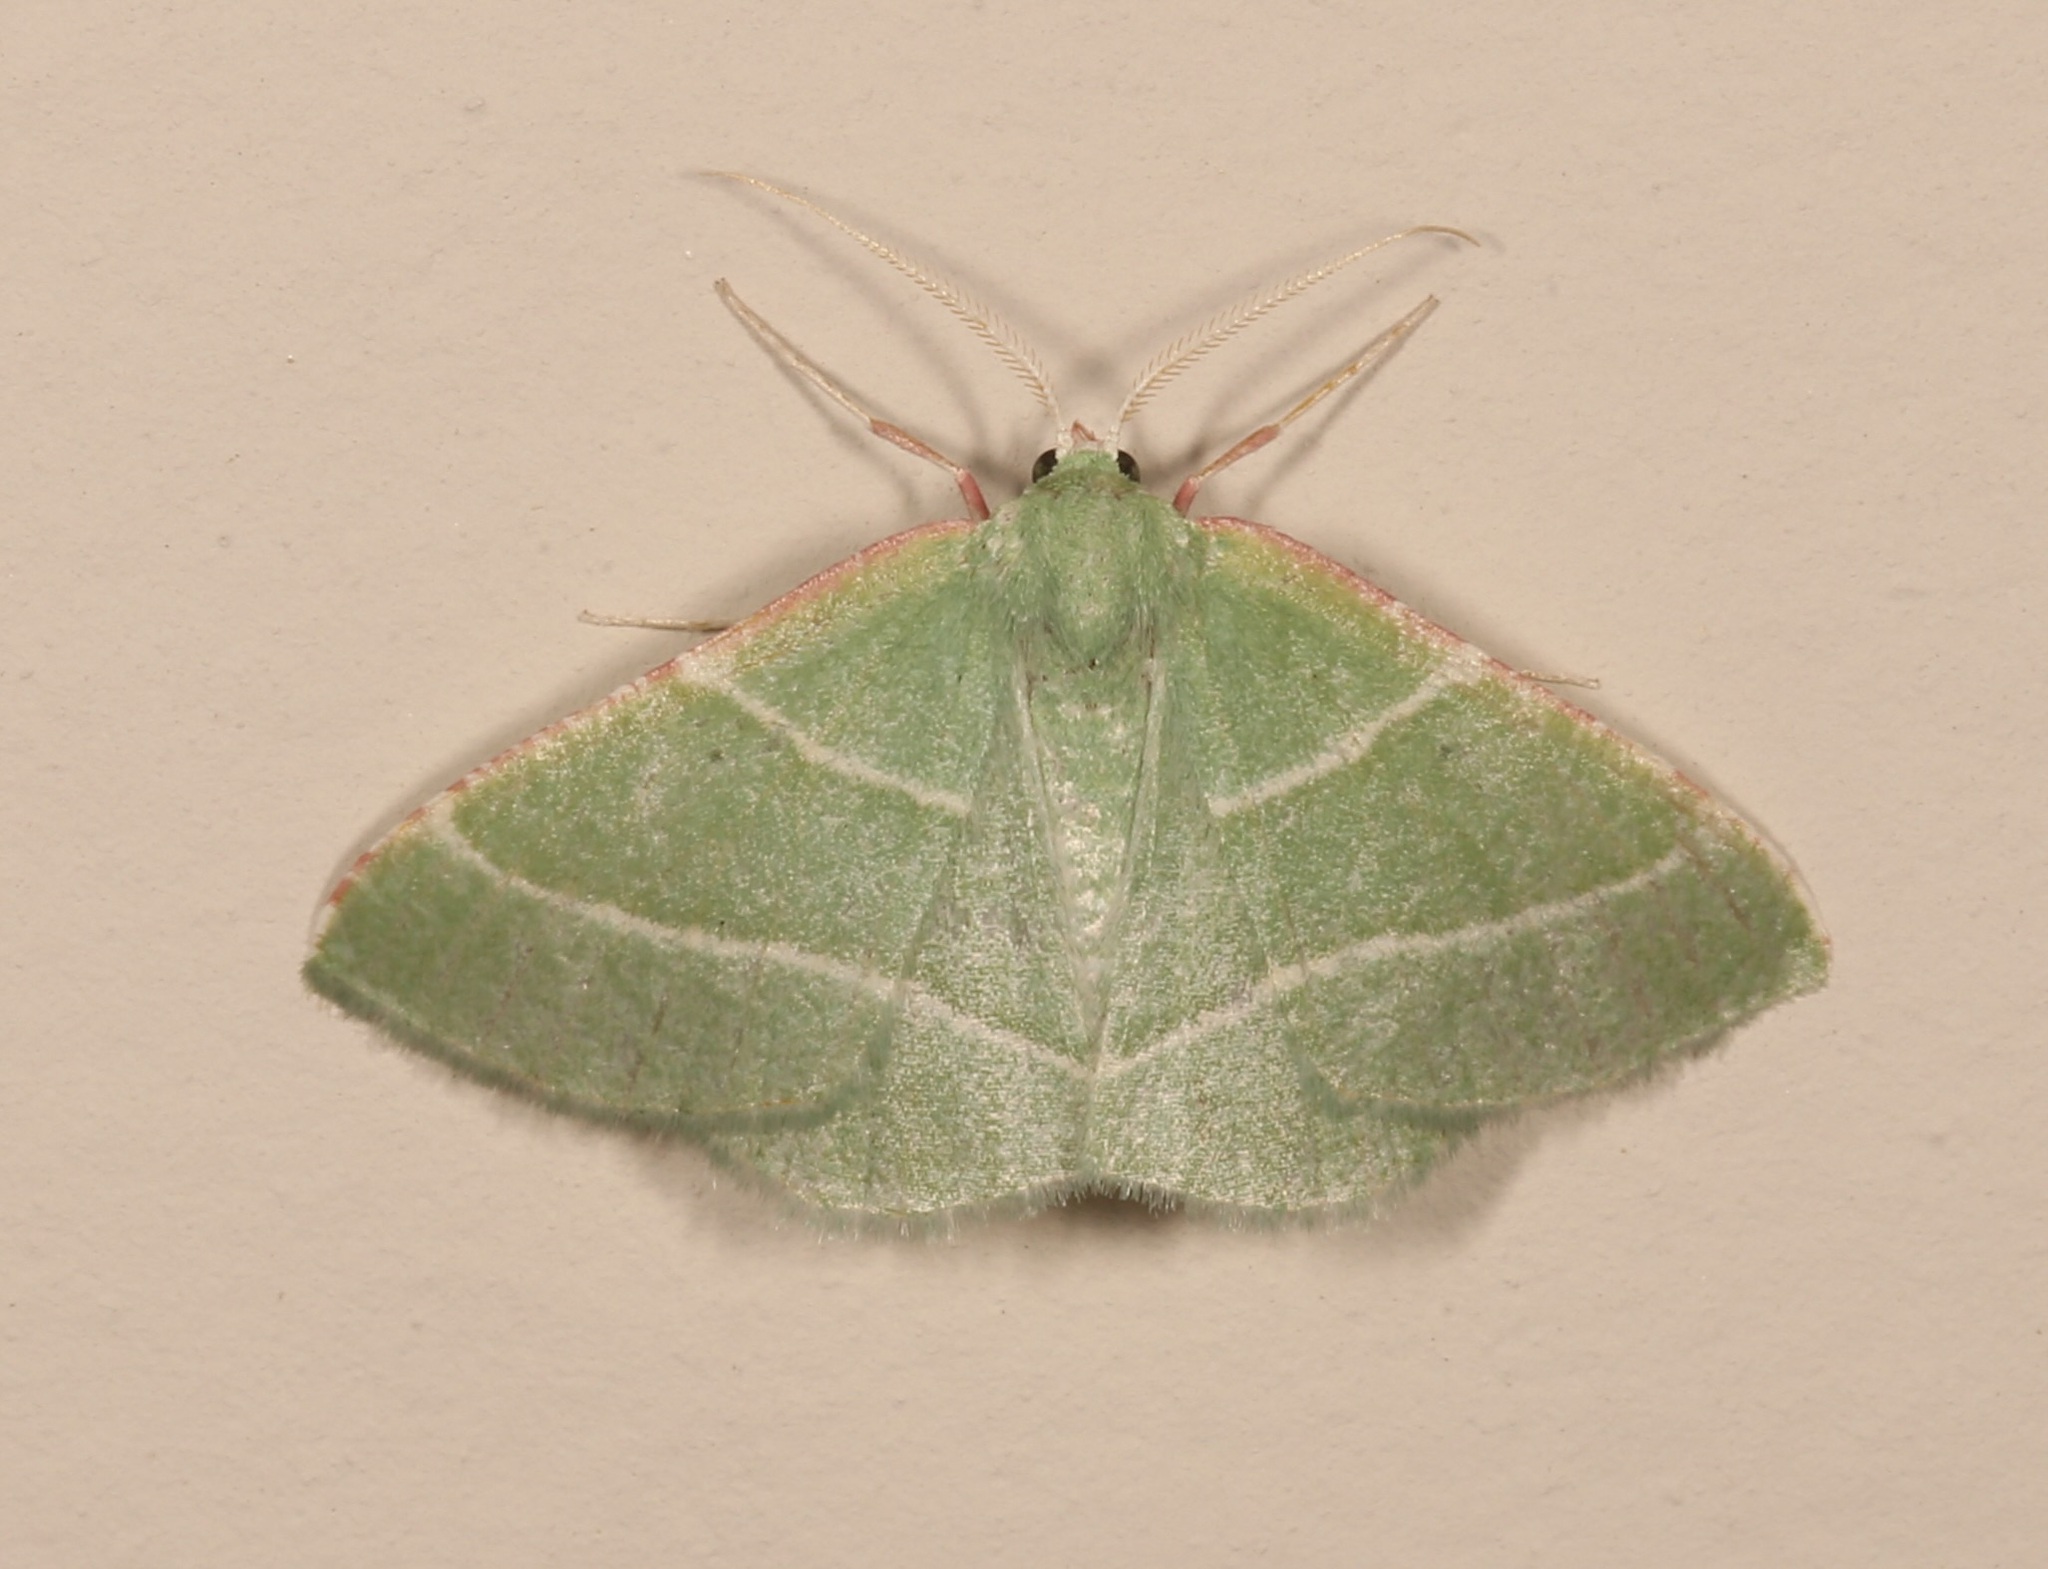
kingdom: Animalia
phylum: Arthropoda
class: Insecta
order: Lepidoptera
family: Geometridae
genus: Dichordophora
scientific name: Dichordophora phoenix
